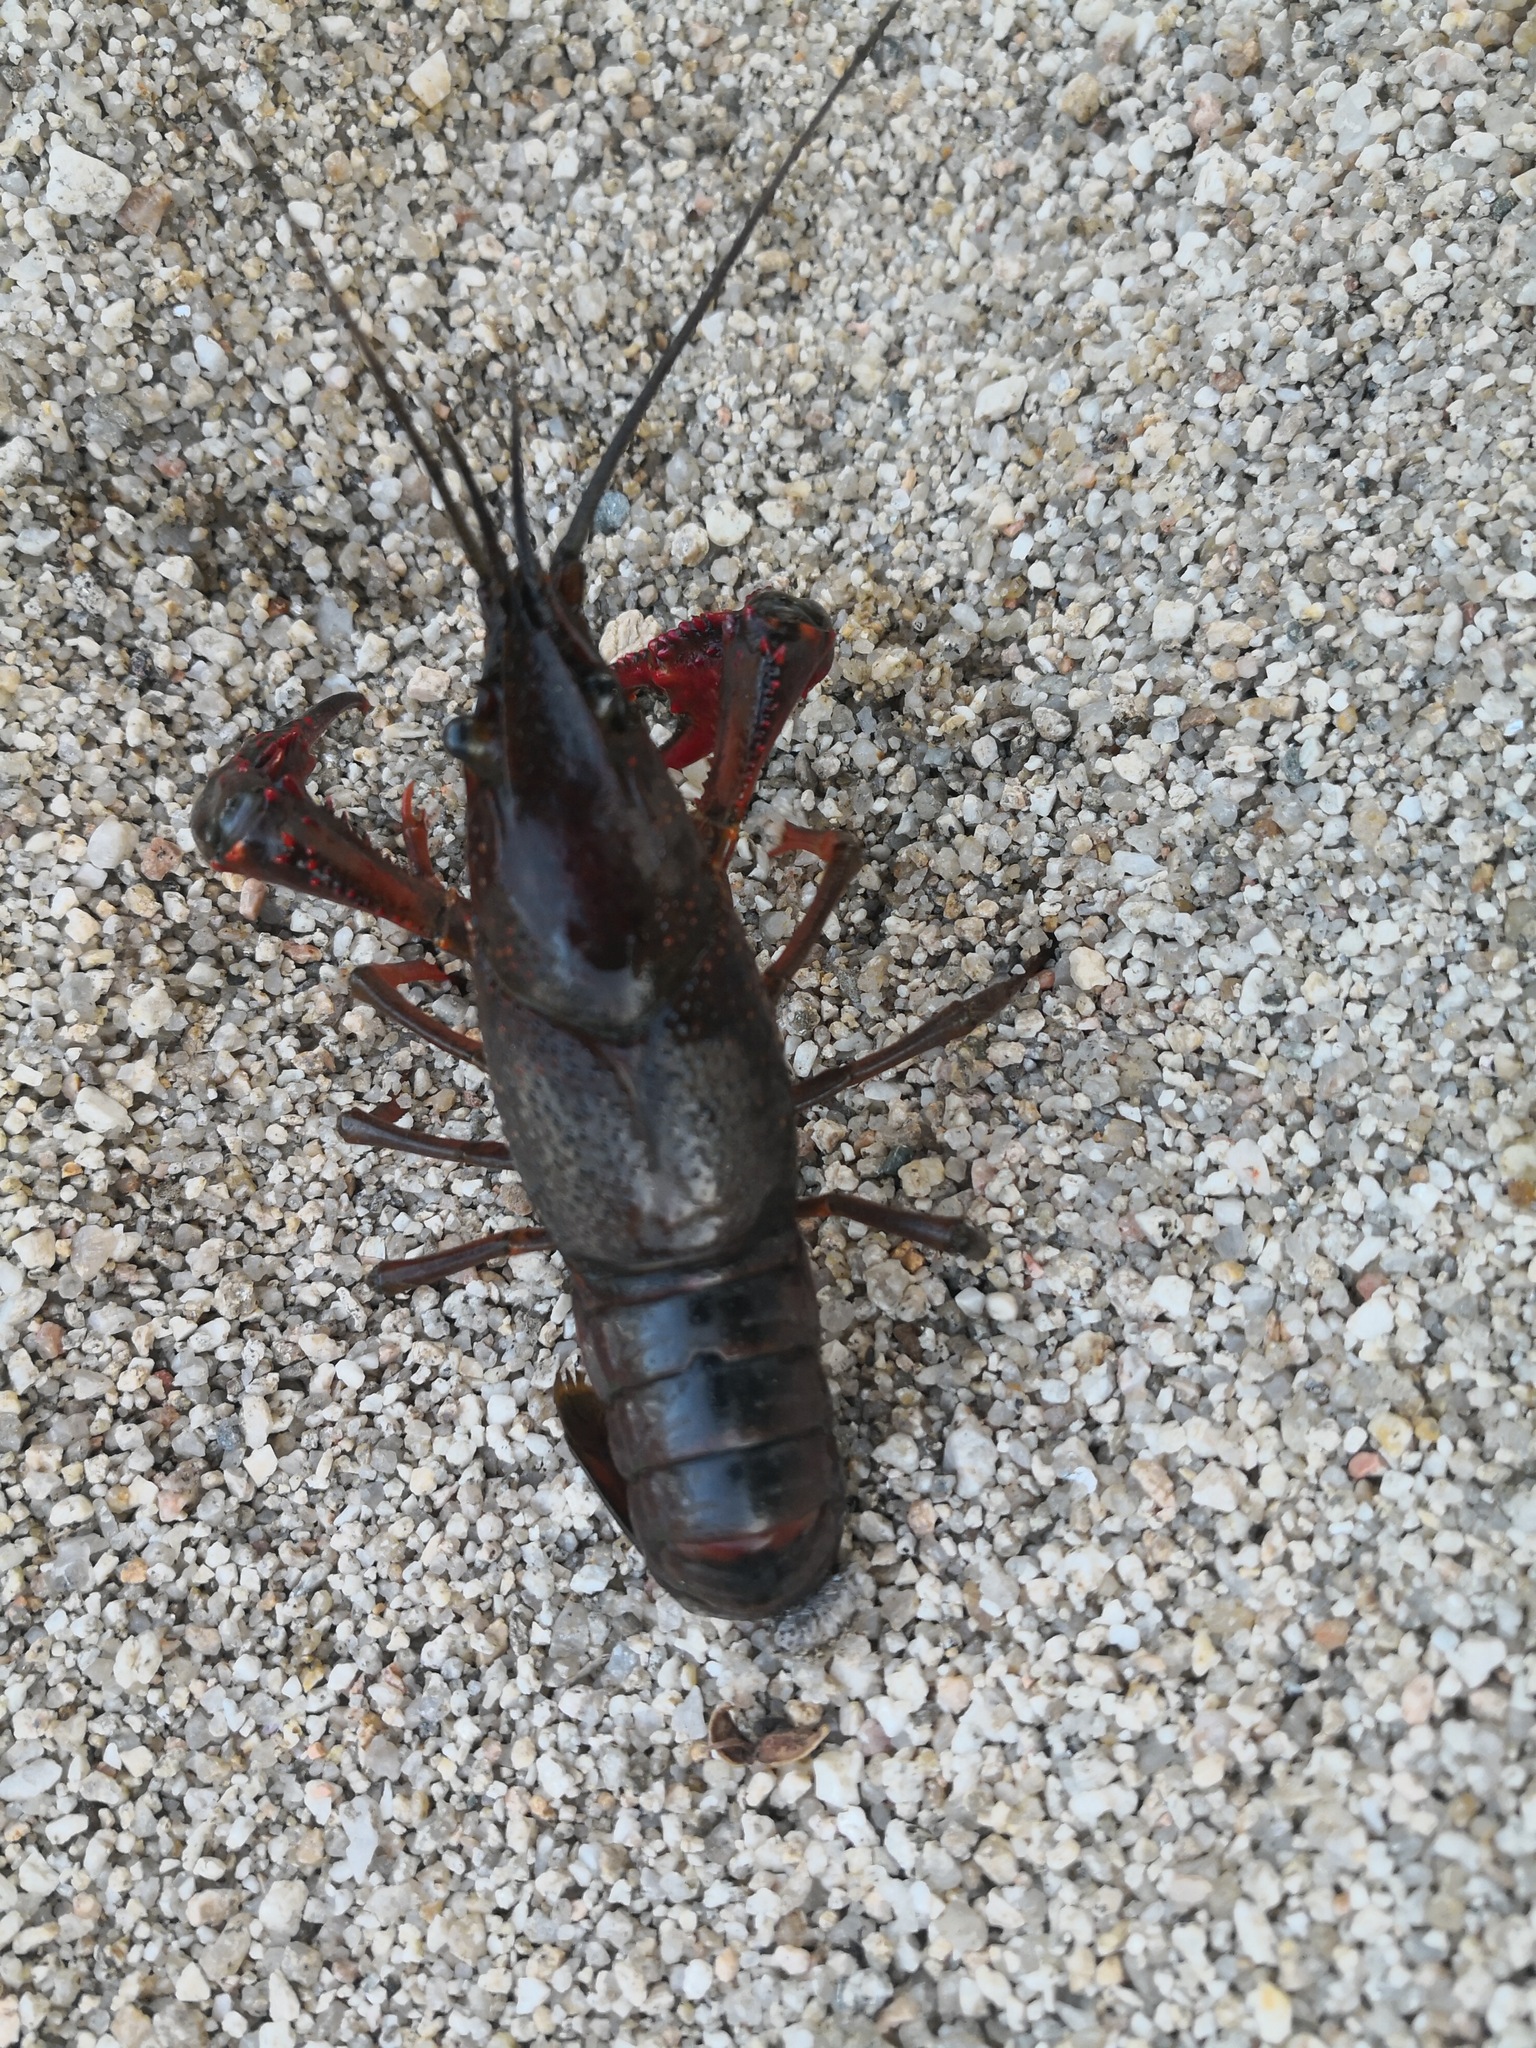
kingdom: Animalia
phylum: Arthropoda
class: Malacostraca
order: Decapoda
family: Cambaridae
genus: Procambarus
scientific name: Procambarus clarkii
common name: Red swamp crayfish
